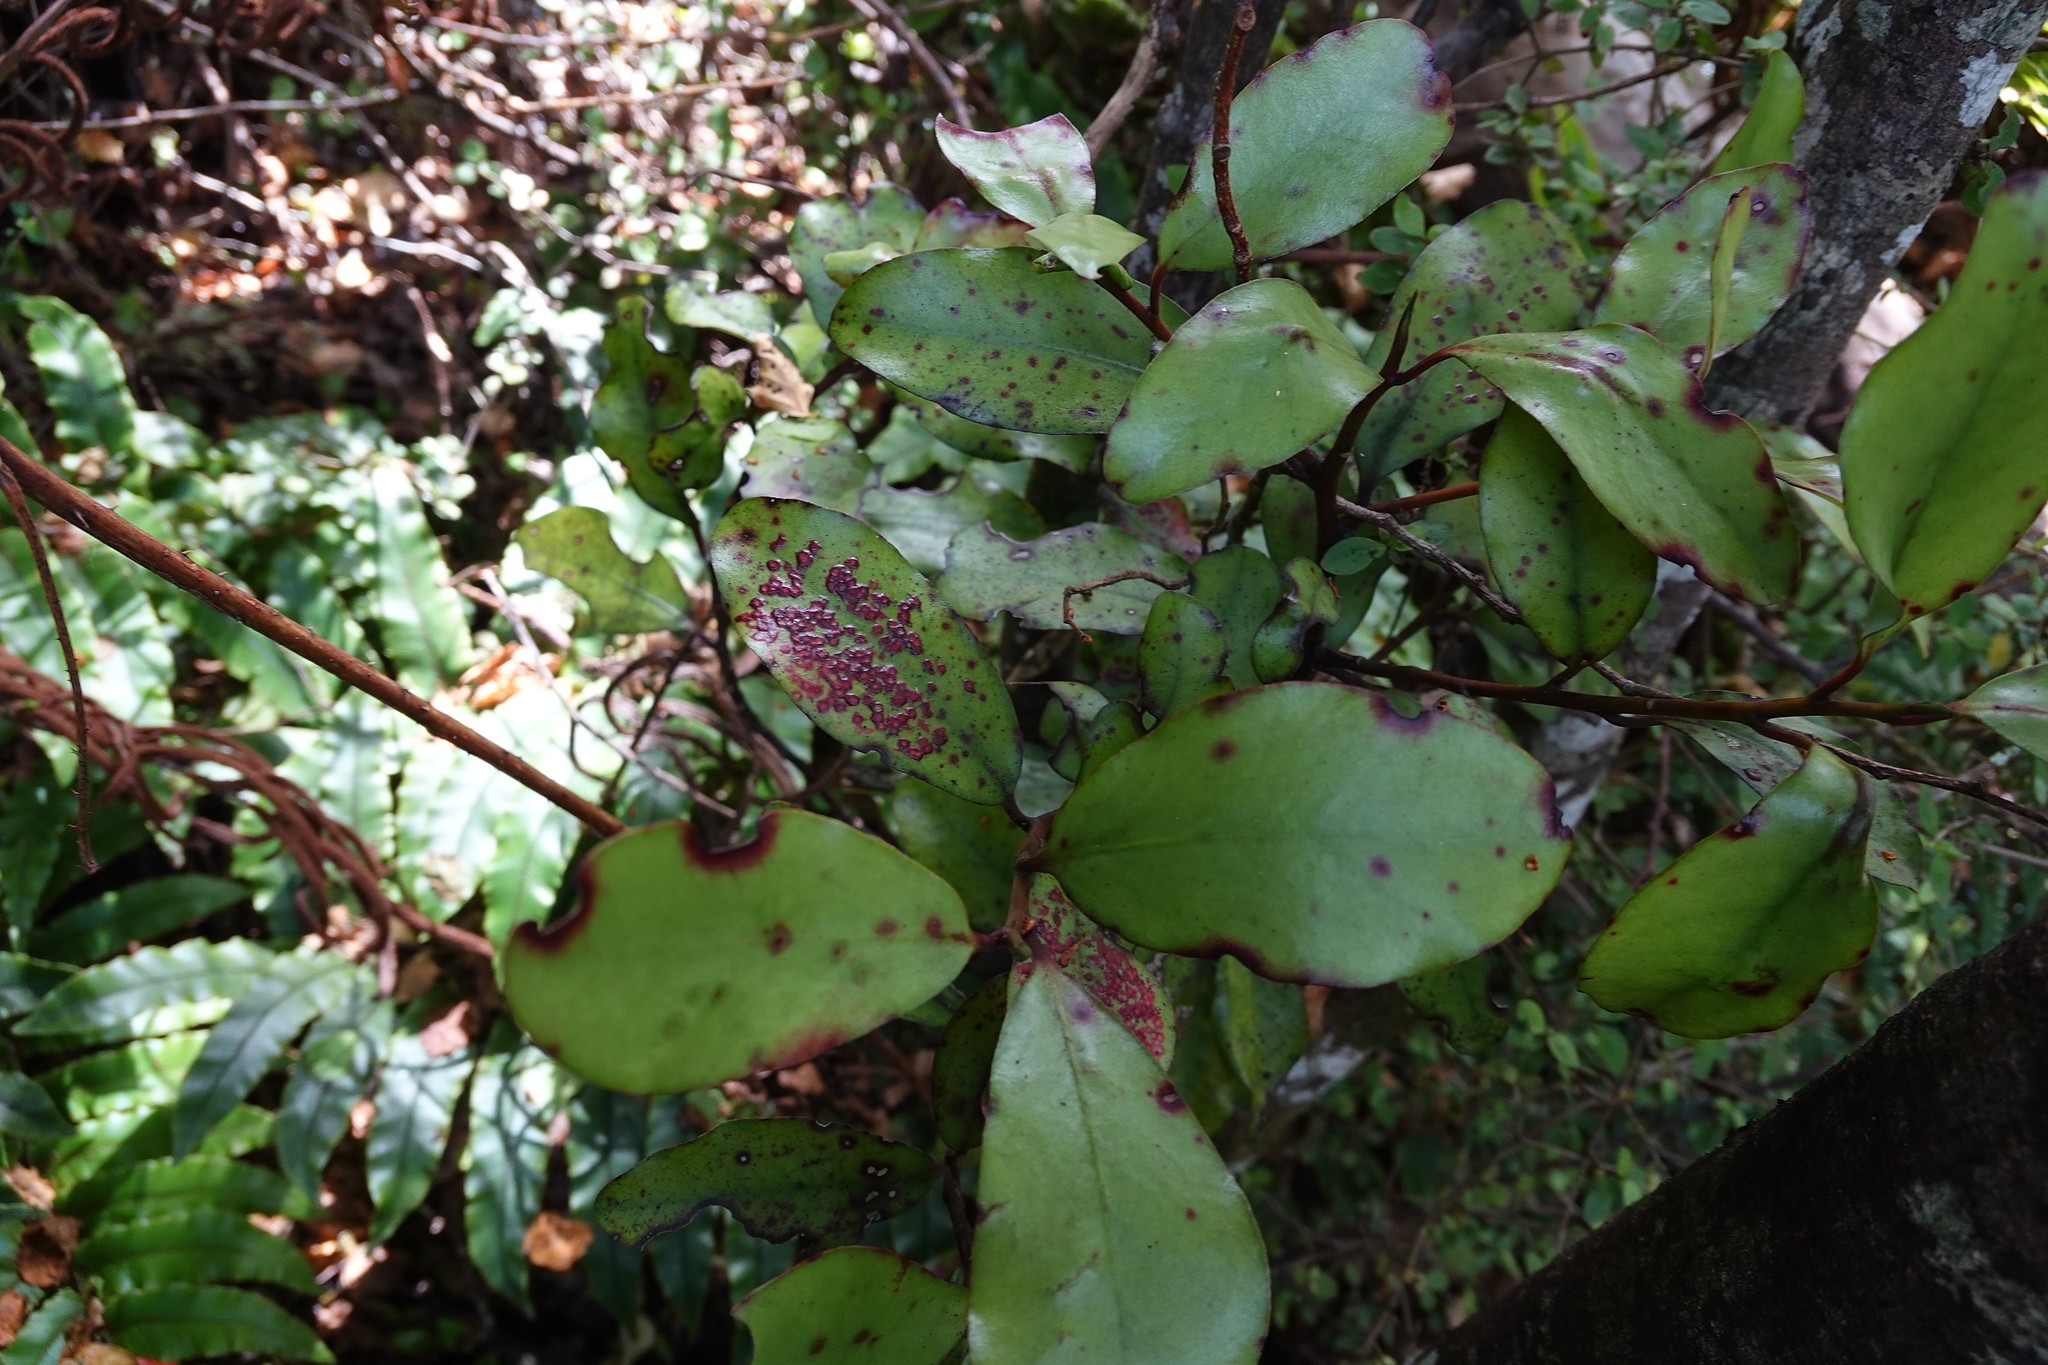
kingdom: Plantae
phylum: Tracheophyta
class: Magnoliopsida
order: Canellales
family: Winteraceae
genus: Pseudowintera
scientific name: Pseudowintera colorata
